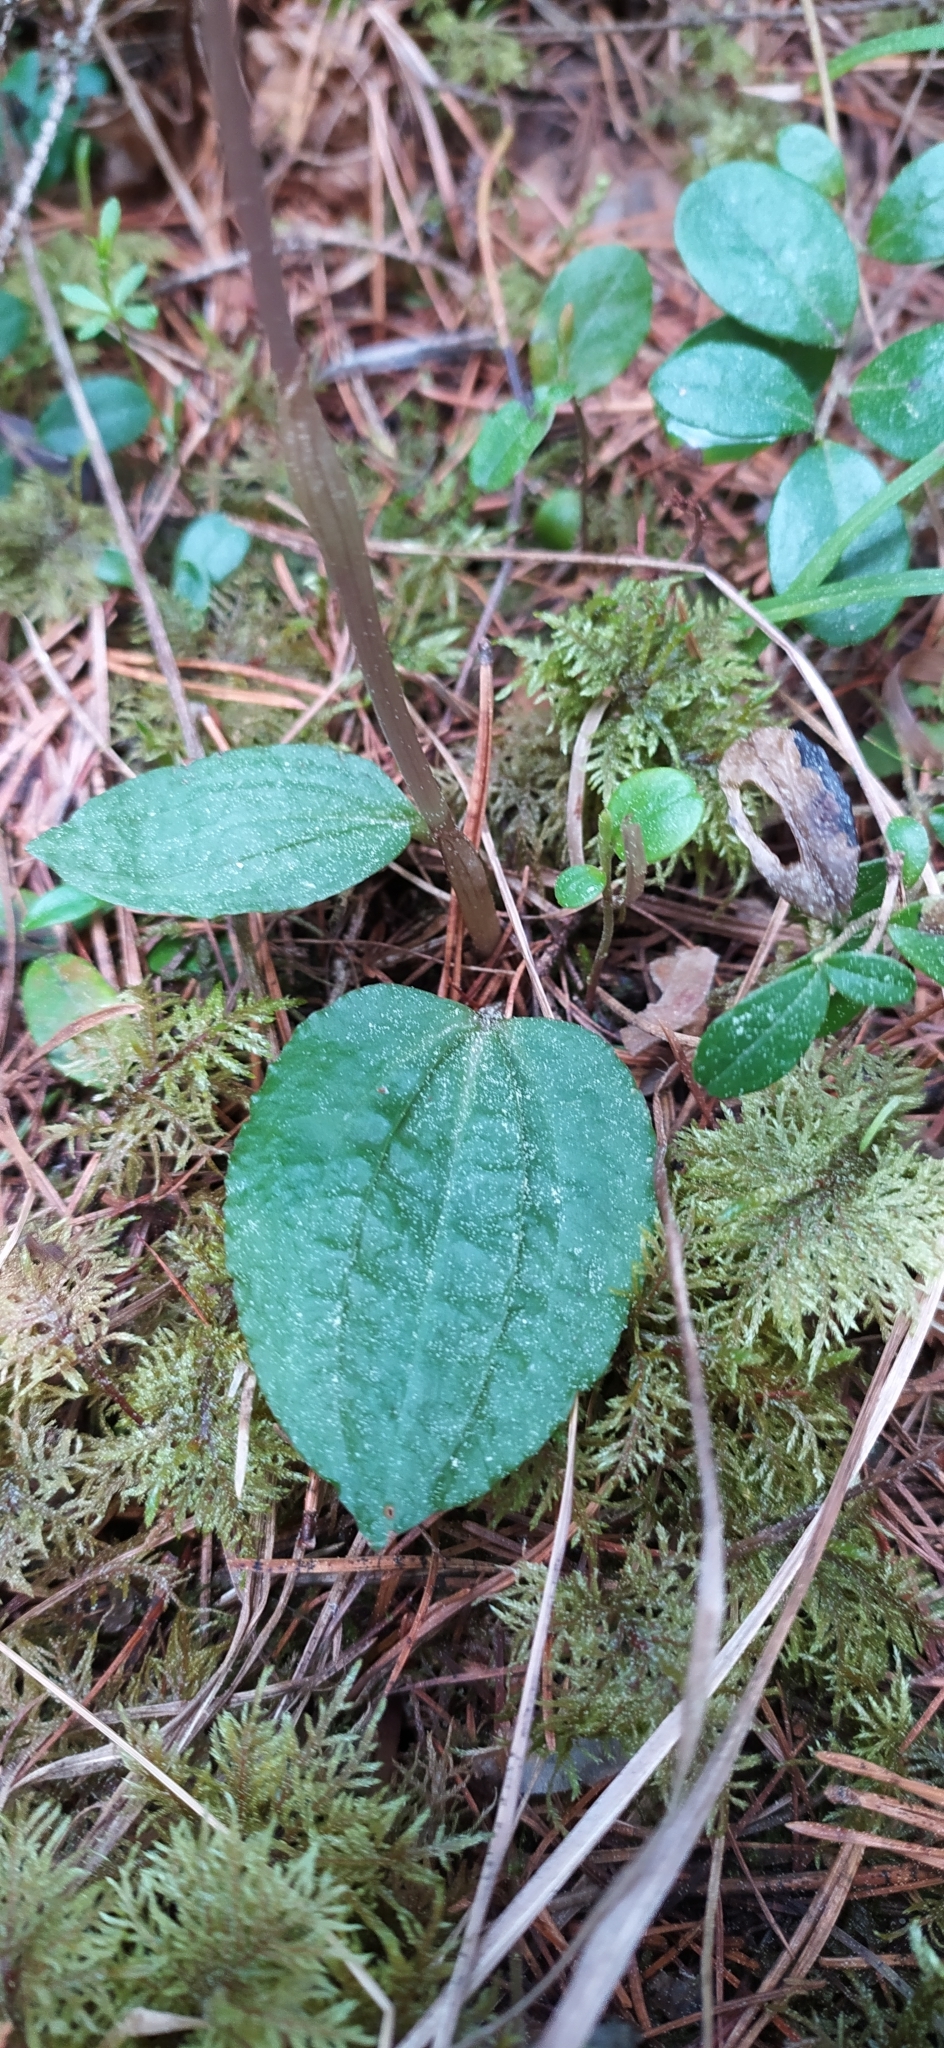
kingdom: Plantae
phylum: Tracheophyta
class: Liliopsida
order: Asparagales
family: Orchidaceae
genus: Calypso
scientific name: Calypso bulbosa
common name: Calypso
